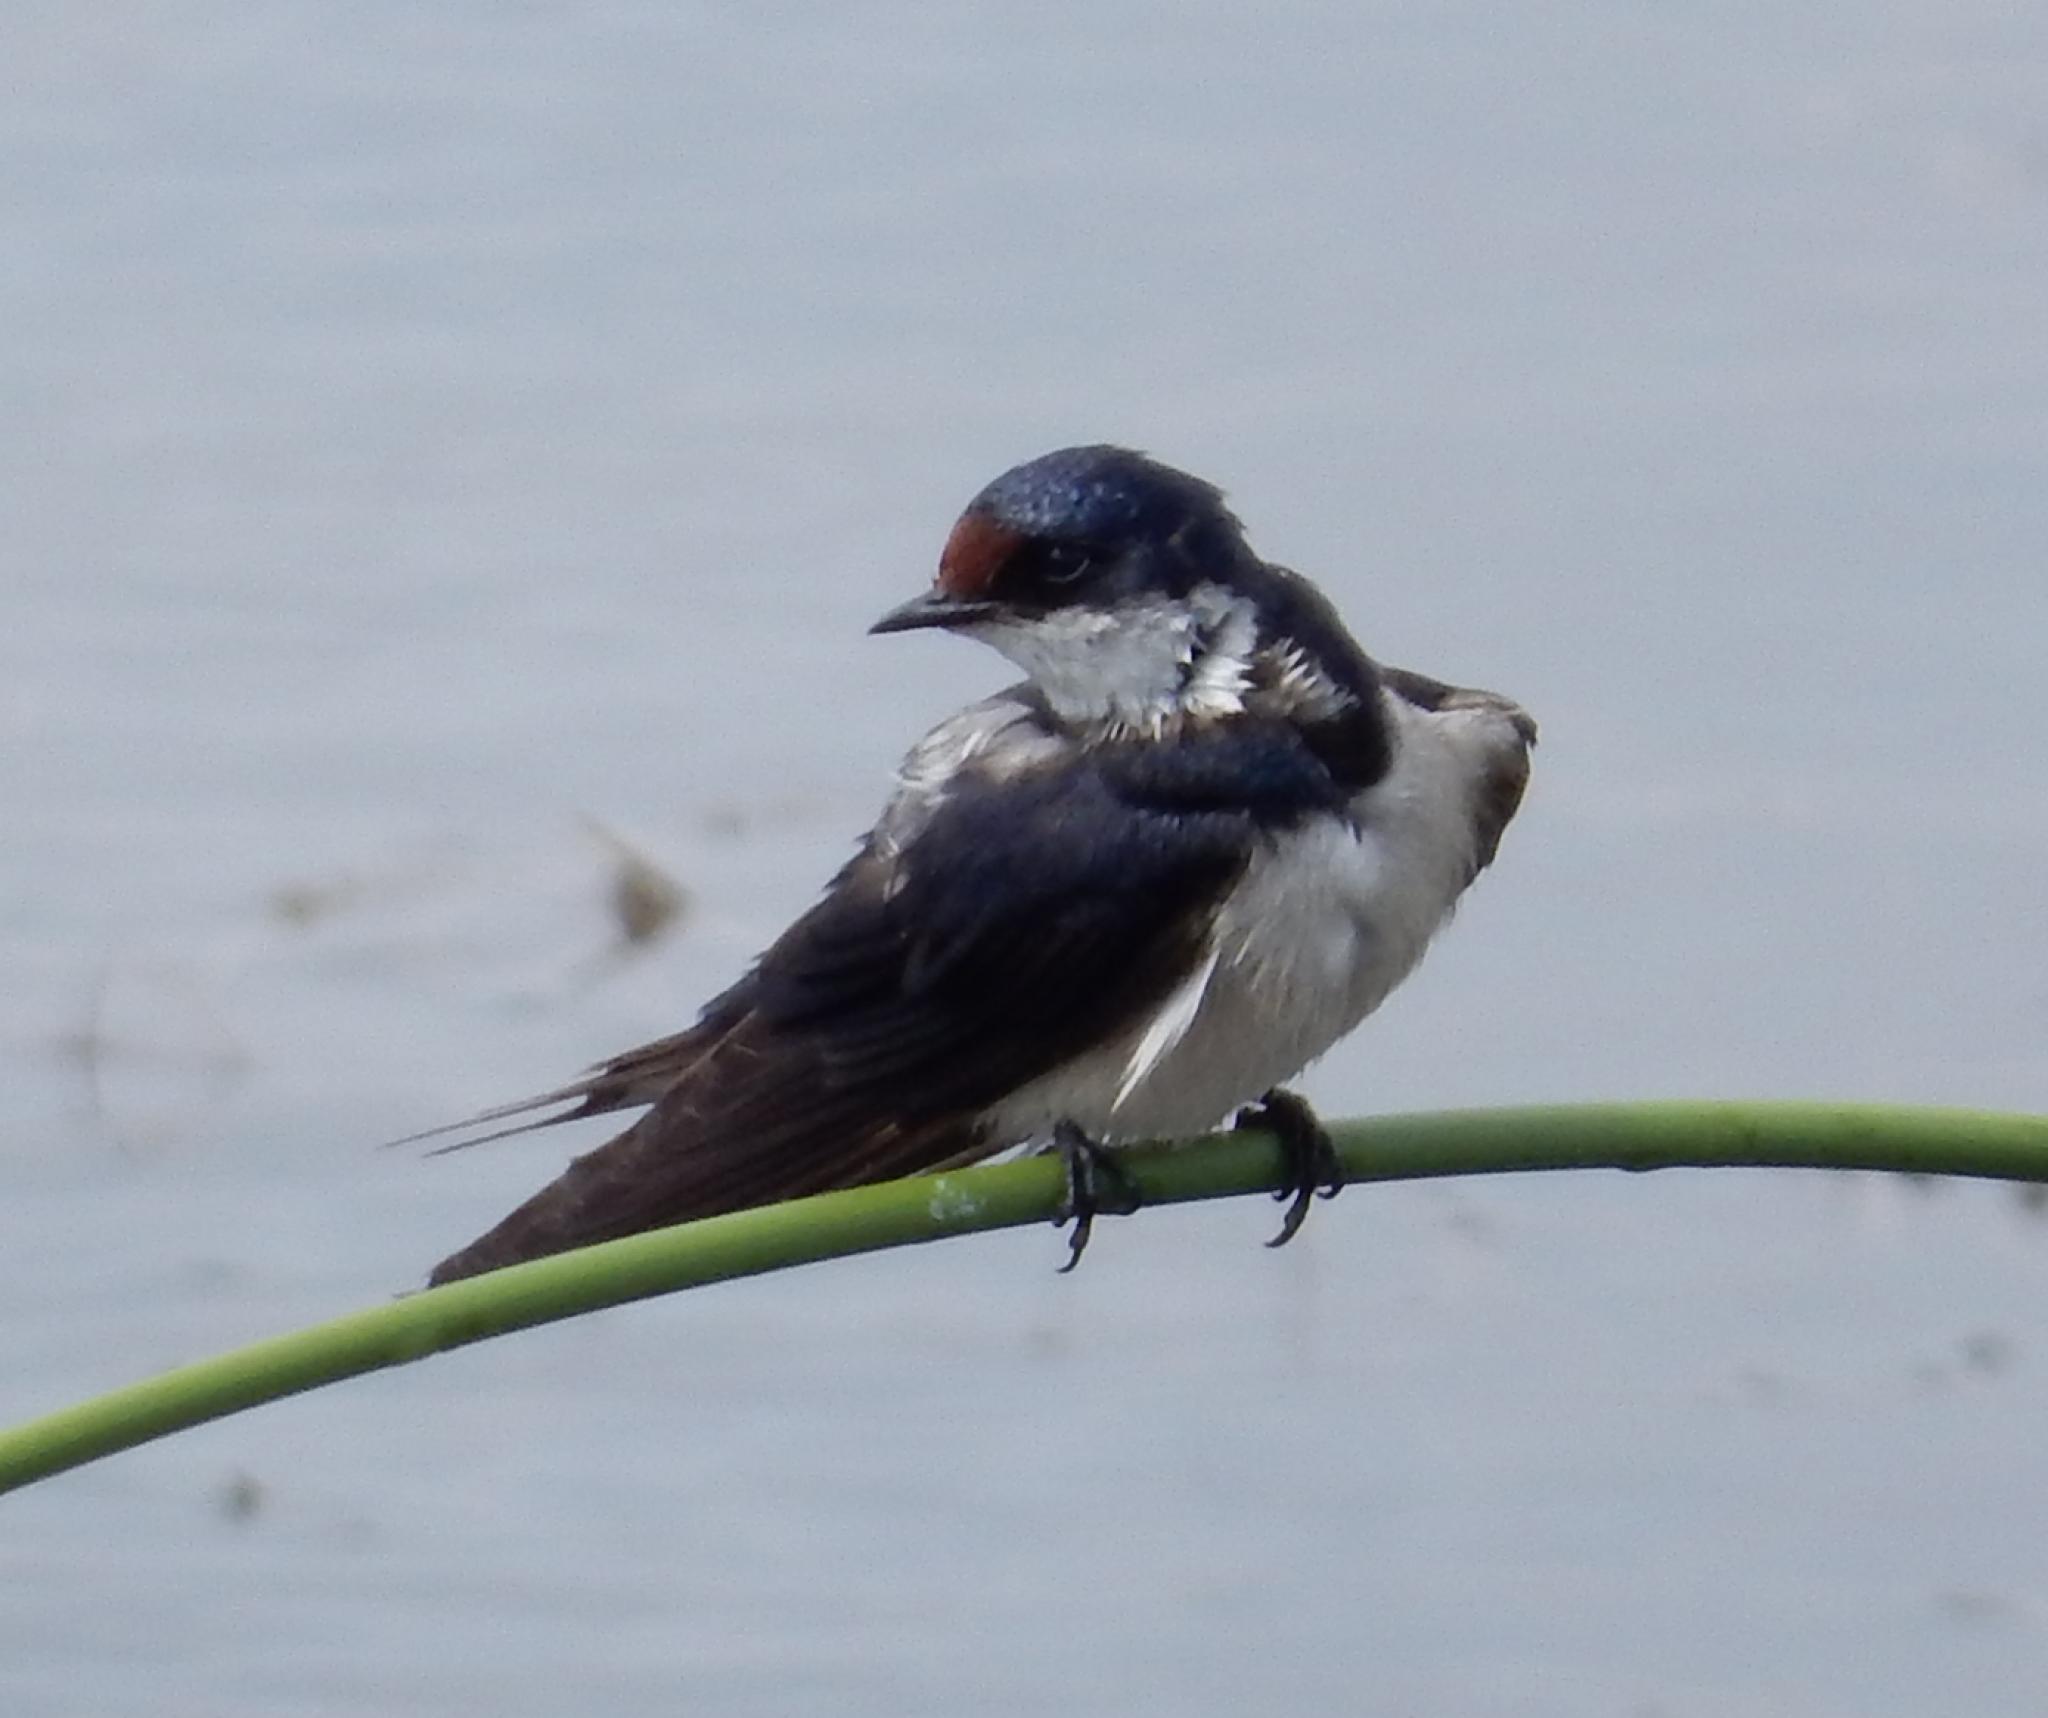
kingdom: Animalia
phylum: Chordata
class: Aves
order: Passeriformes
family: Hirundinidae
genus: Hirundo
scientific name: Hirundo albigularis
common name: White-throated swallow
